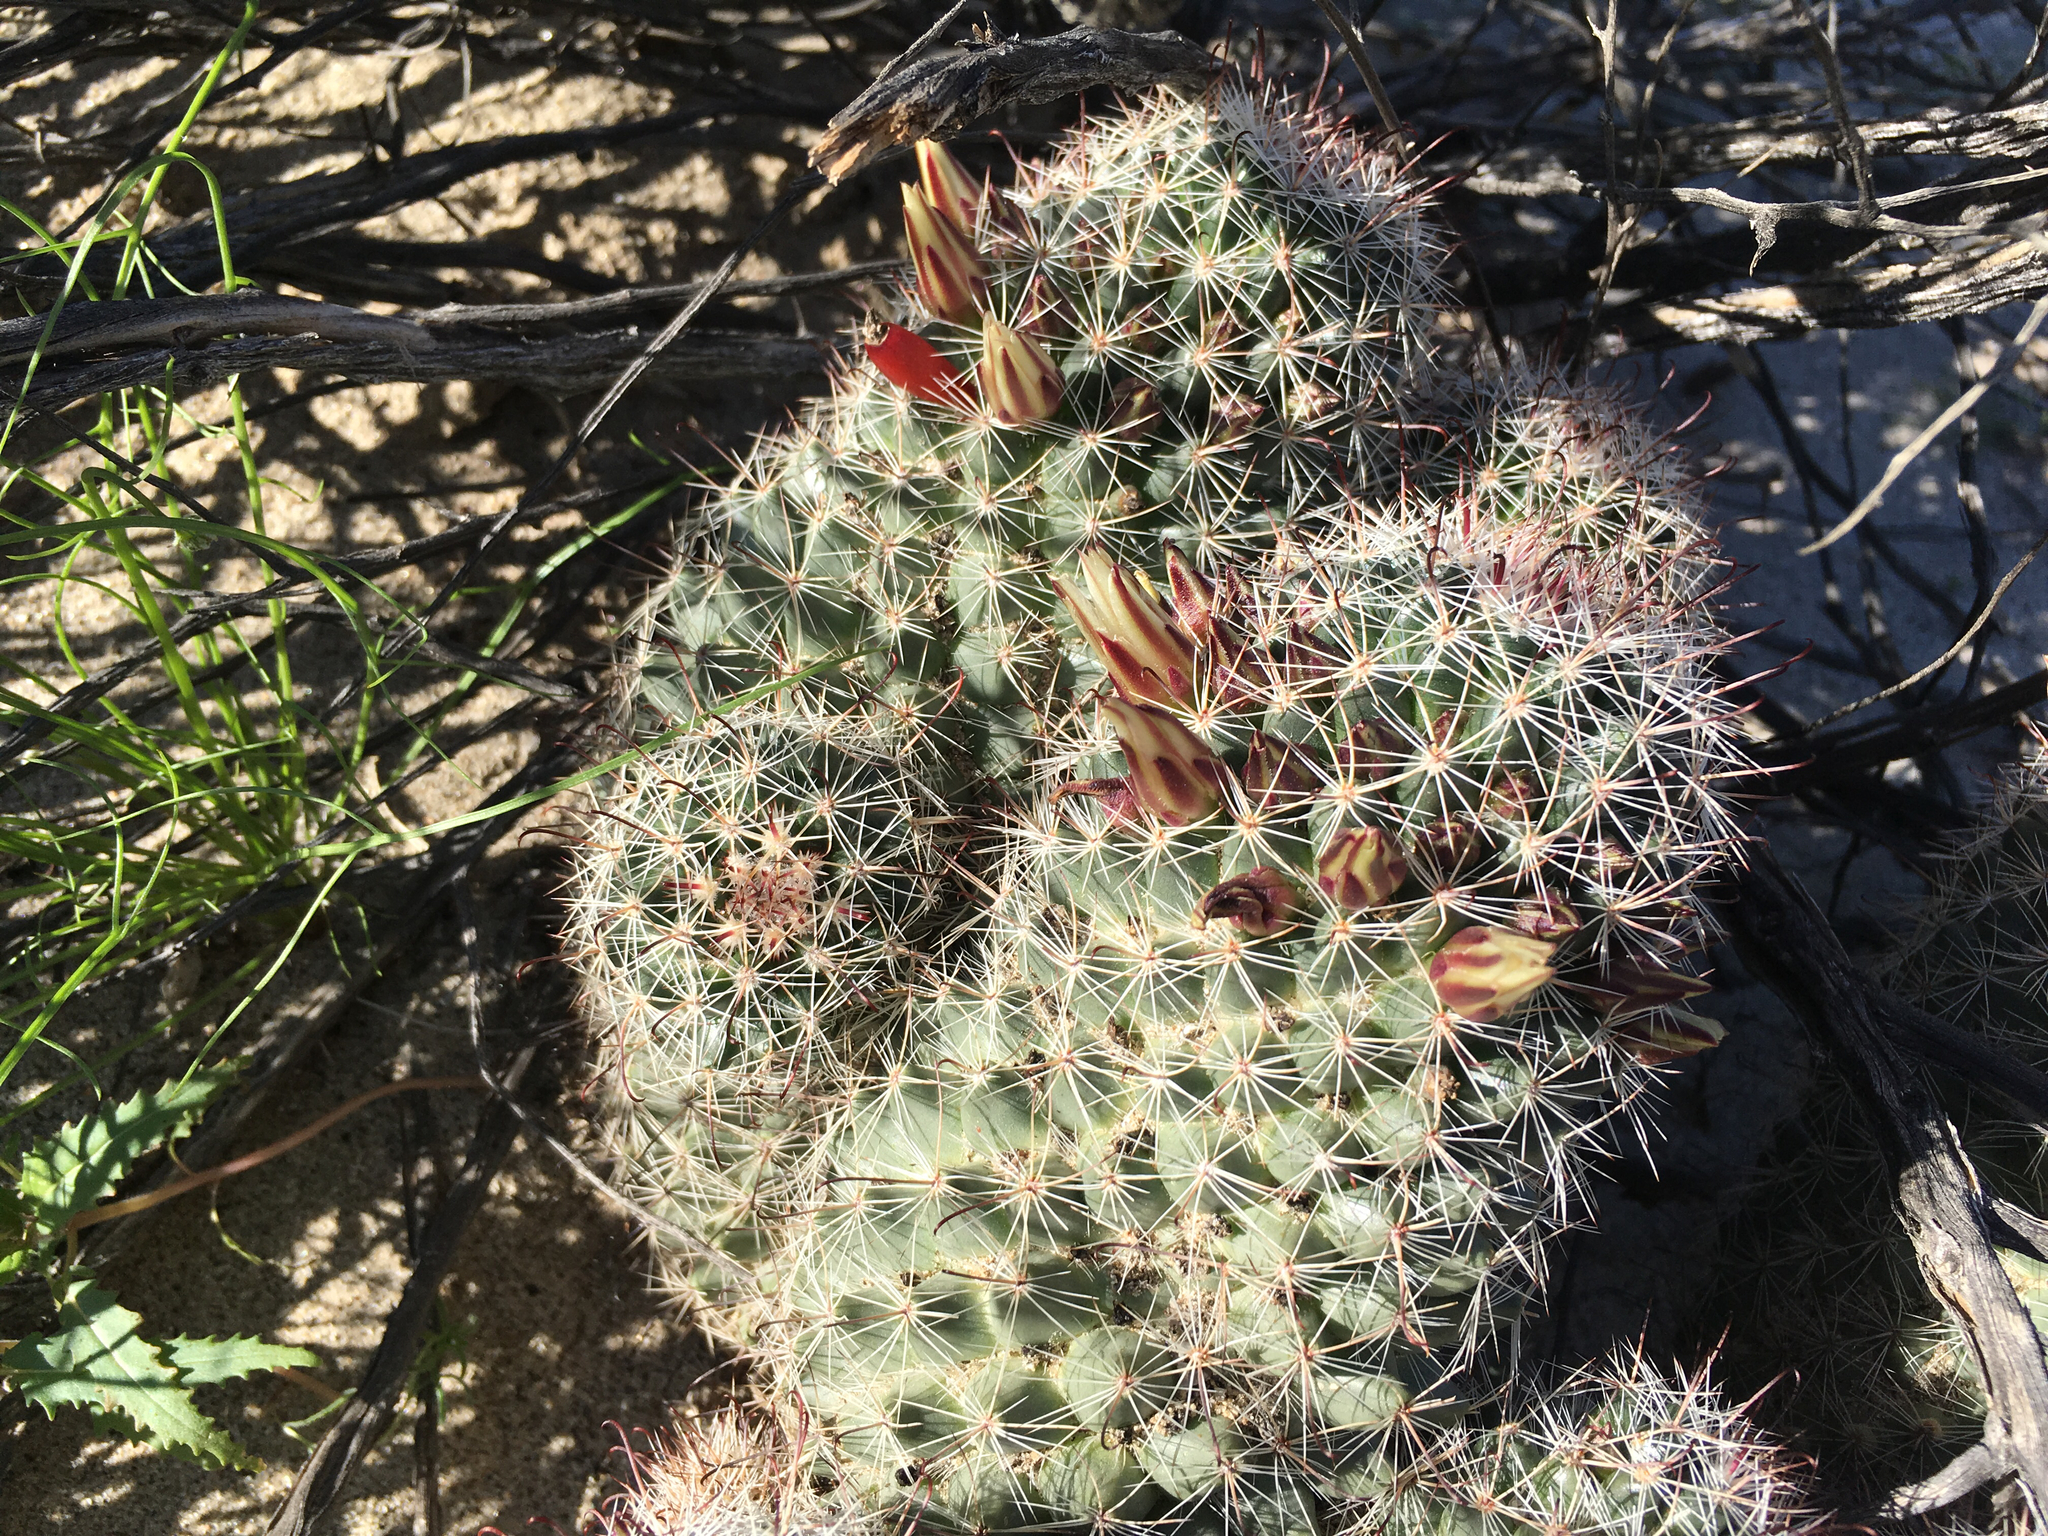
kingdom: Plantae
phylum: Tracheophyta
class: Magnoliopsida
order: Caryophyllales
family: Cactaceae
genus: Cochemiea
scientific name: Cochemiea dioica
